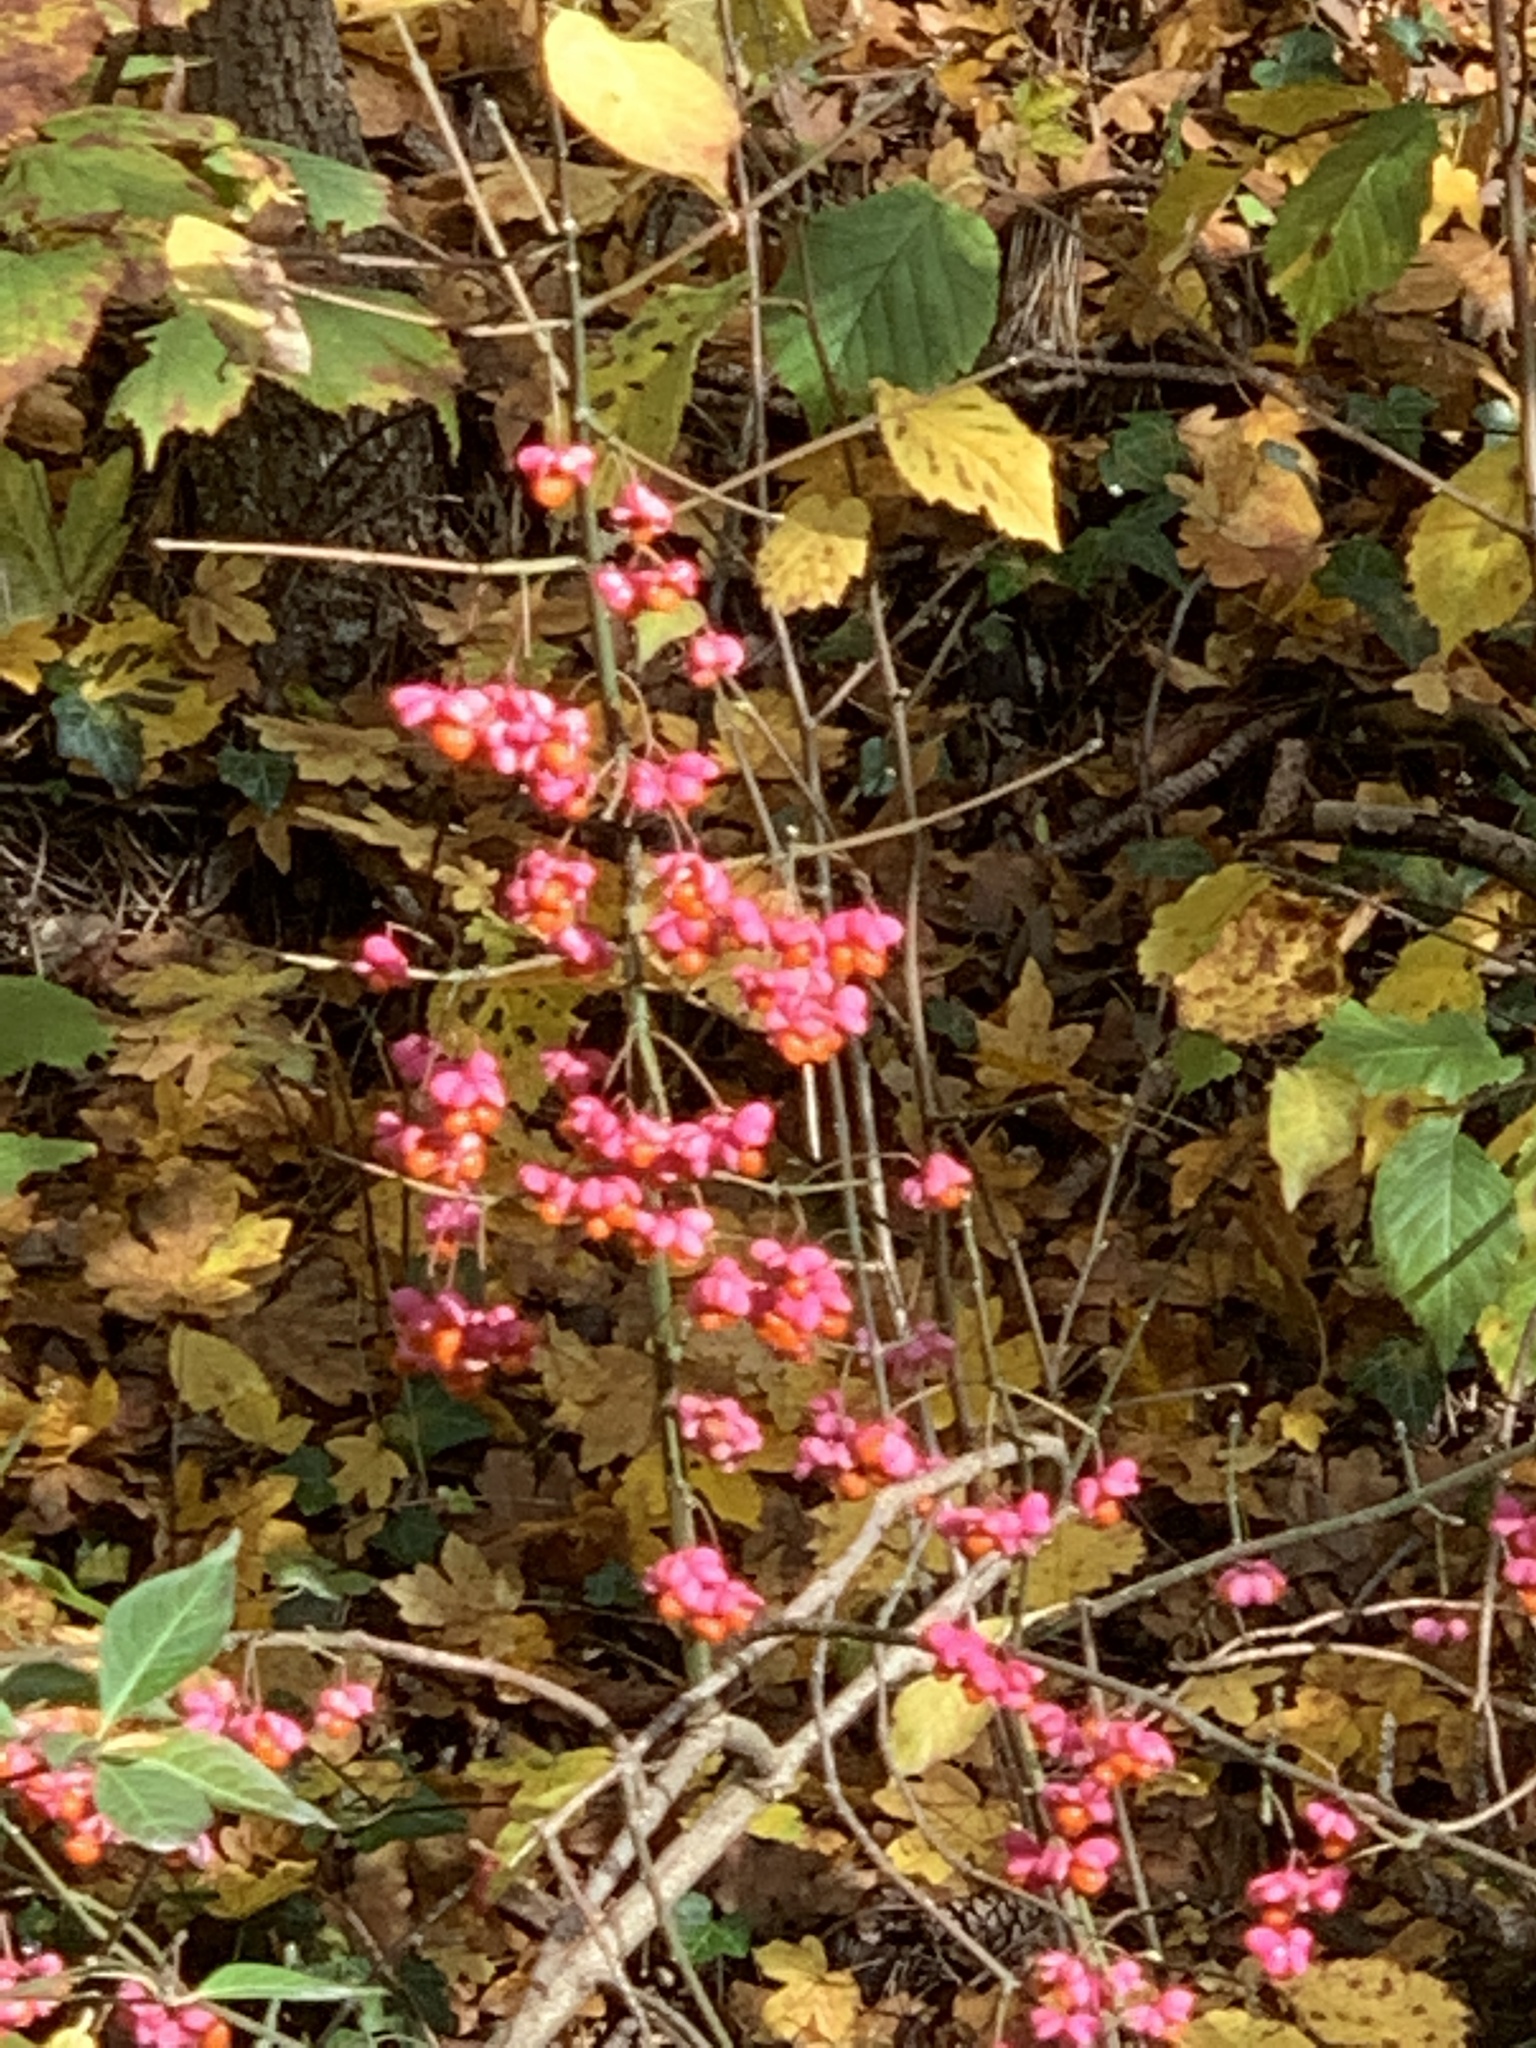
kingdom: Plantae
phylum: Tracheophyta
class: Magnoliopsida
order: Celastrales
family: Celastraceae
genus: Euonymus
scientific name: Euonymus europaeus
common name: Spindle
